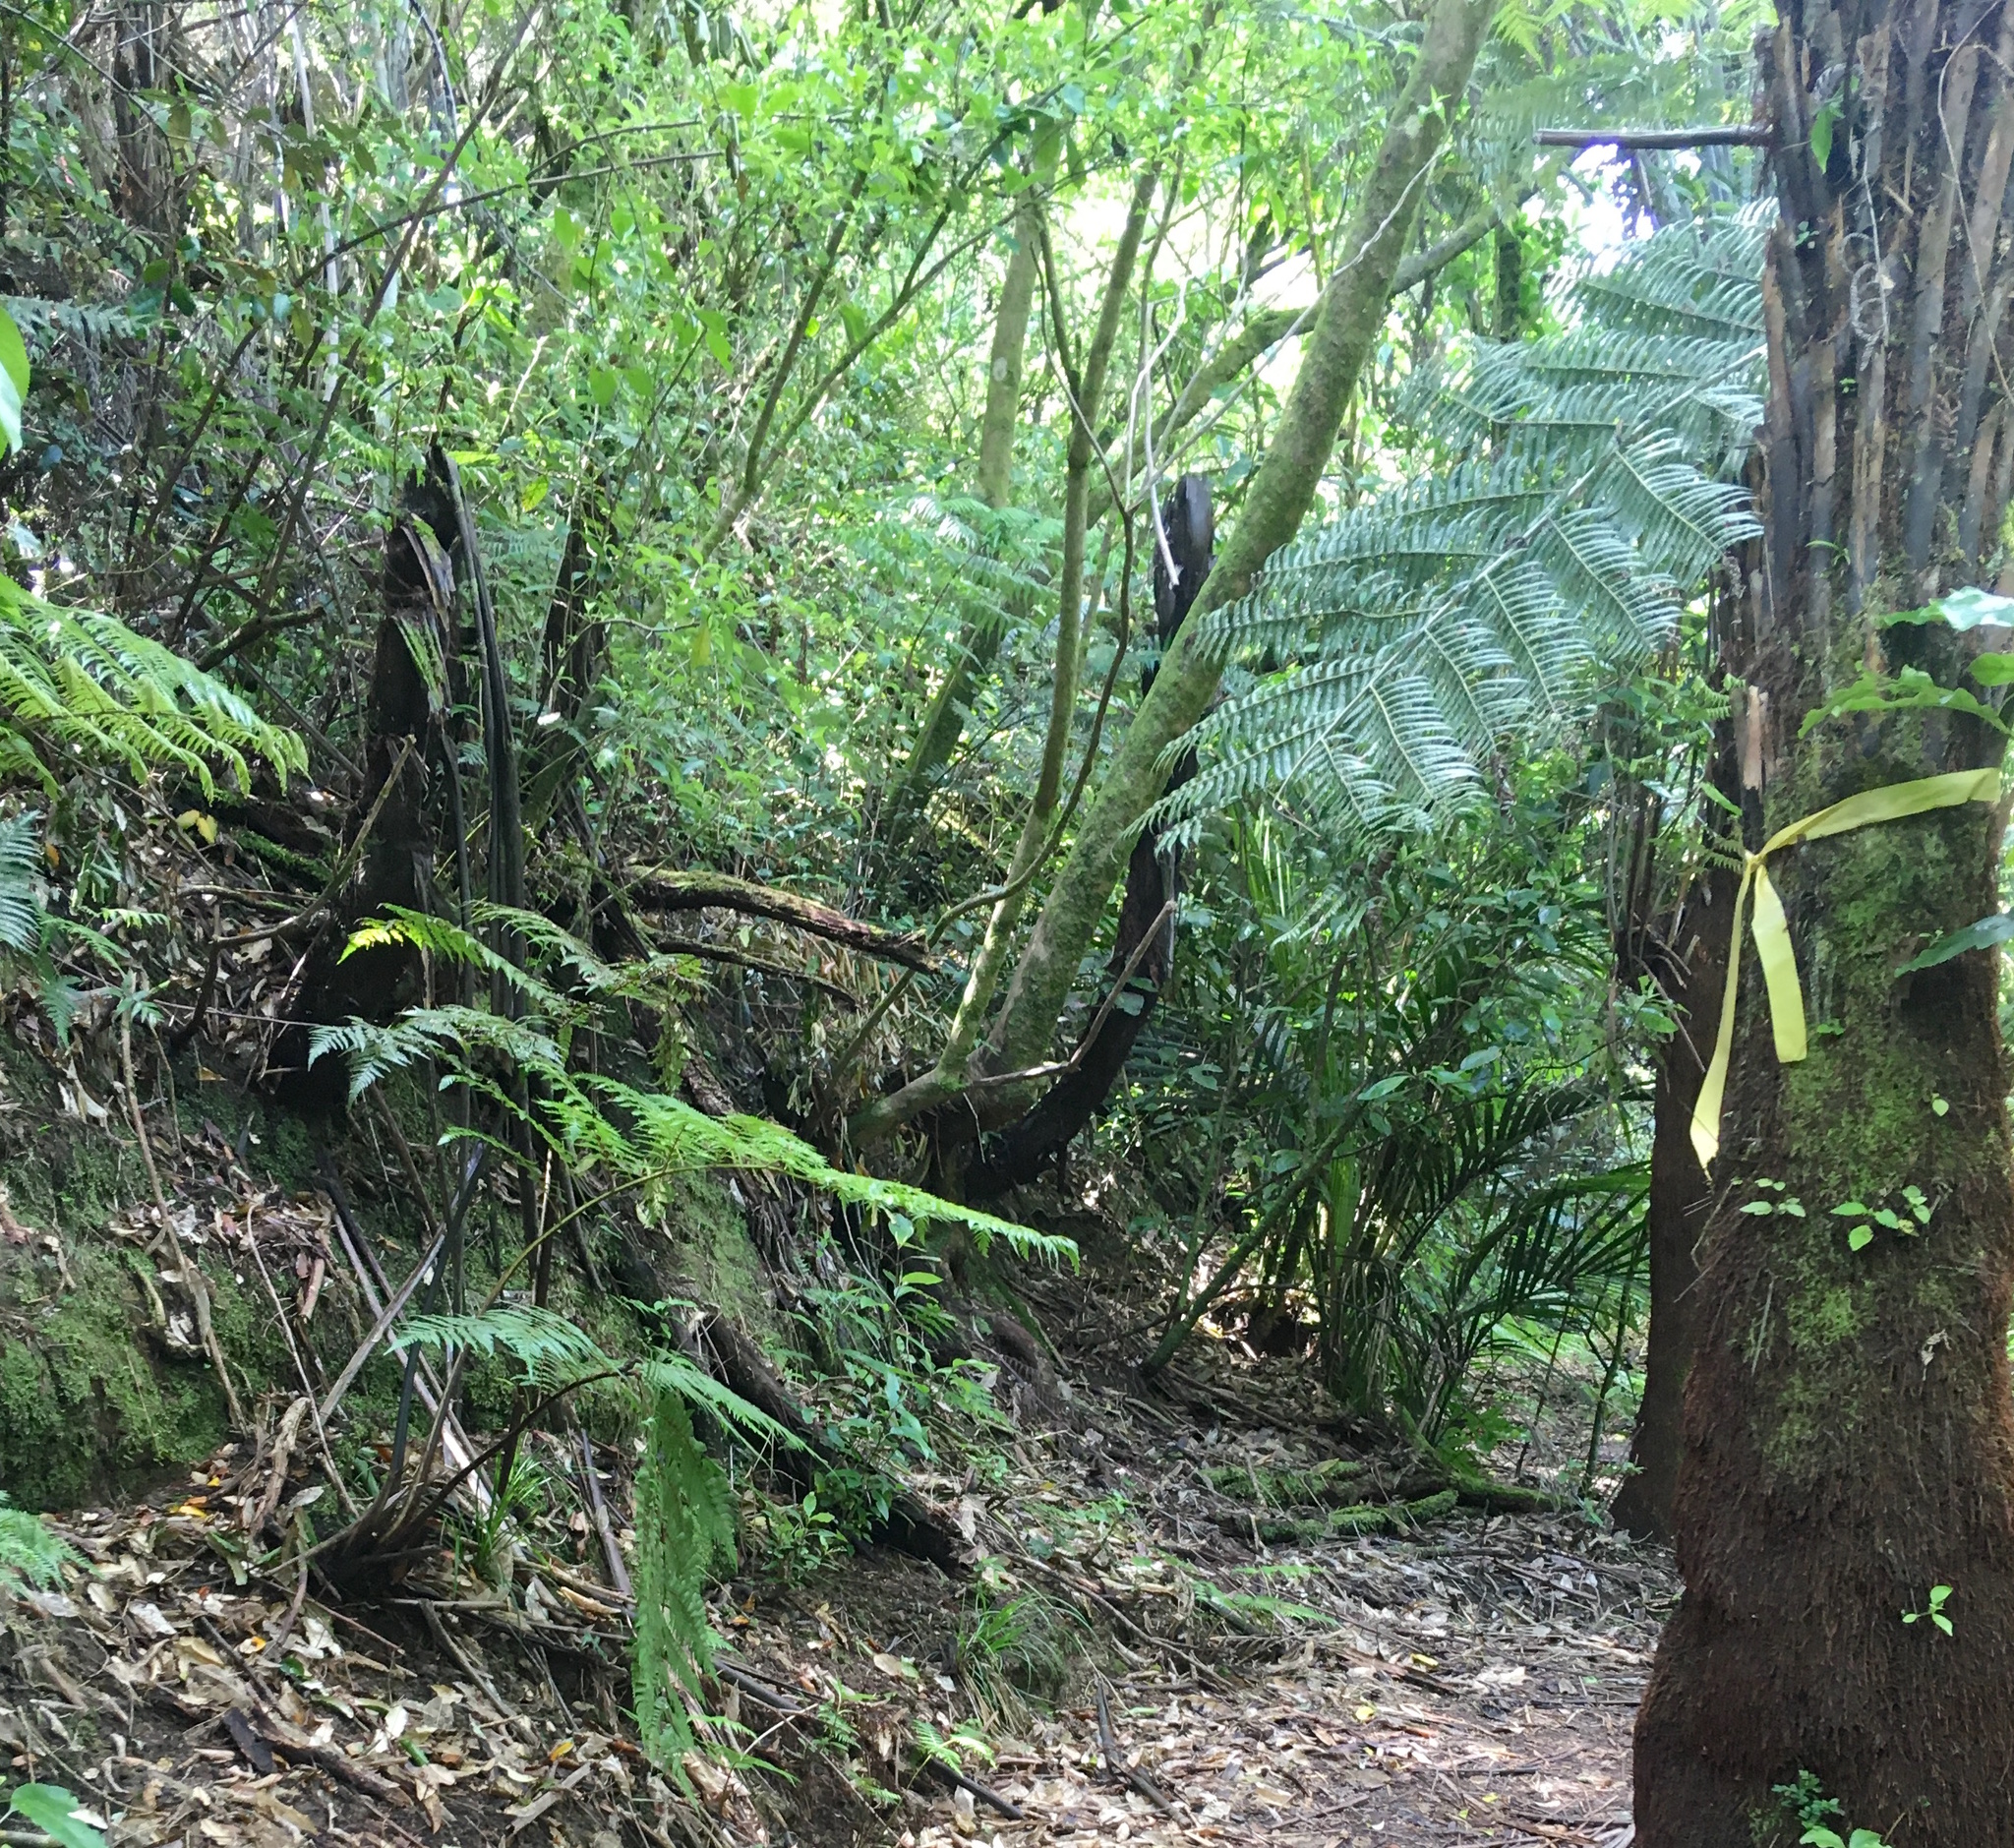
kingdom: Plantae
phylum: Tracheophyta
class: Magnoliopsida
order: Malpighiales
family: Violaceae
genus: Melicytus
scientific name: Melicytus ramiflorus
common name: Mahoe
